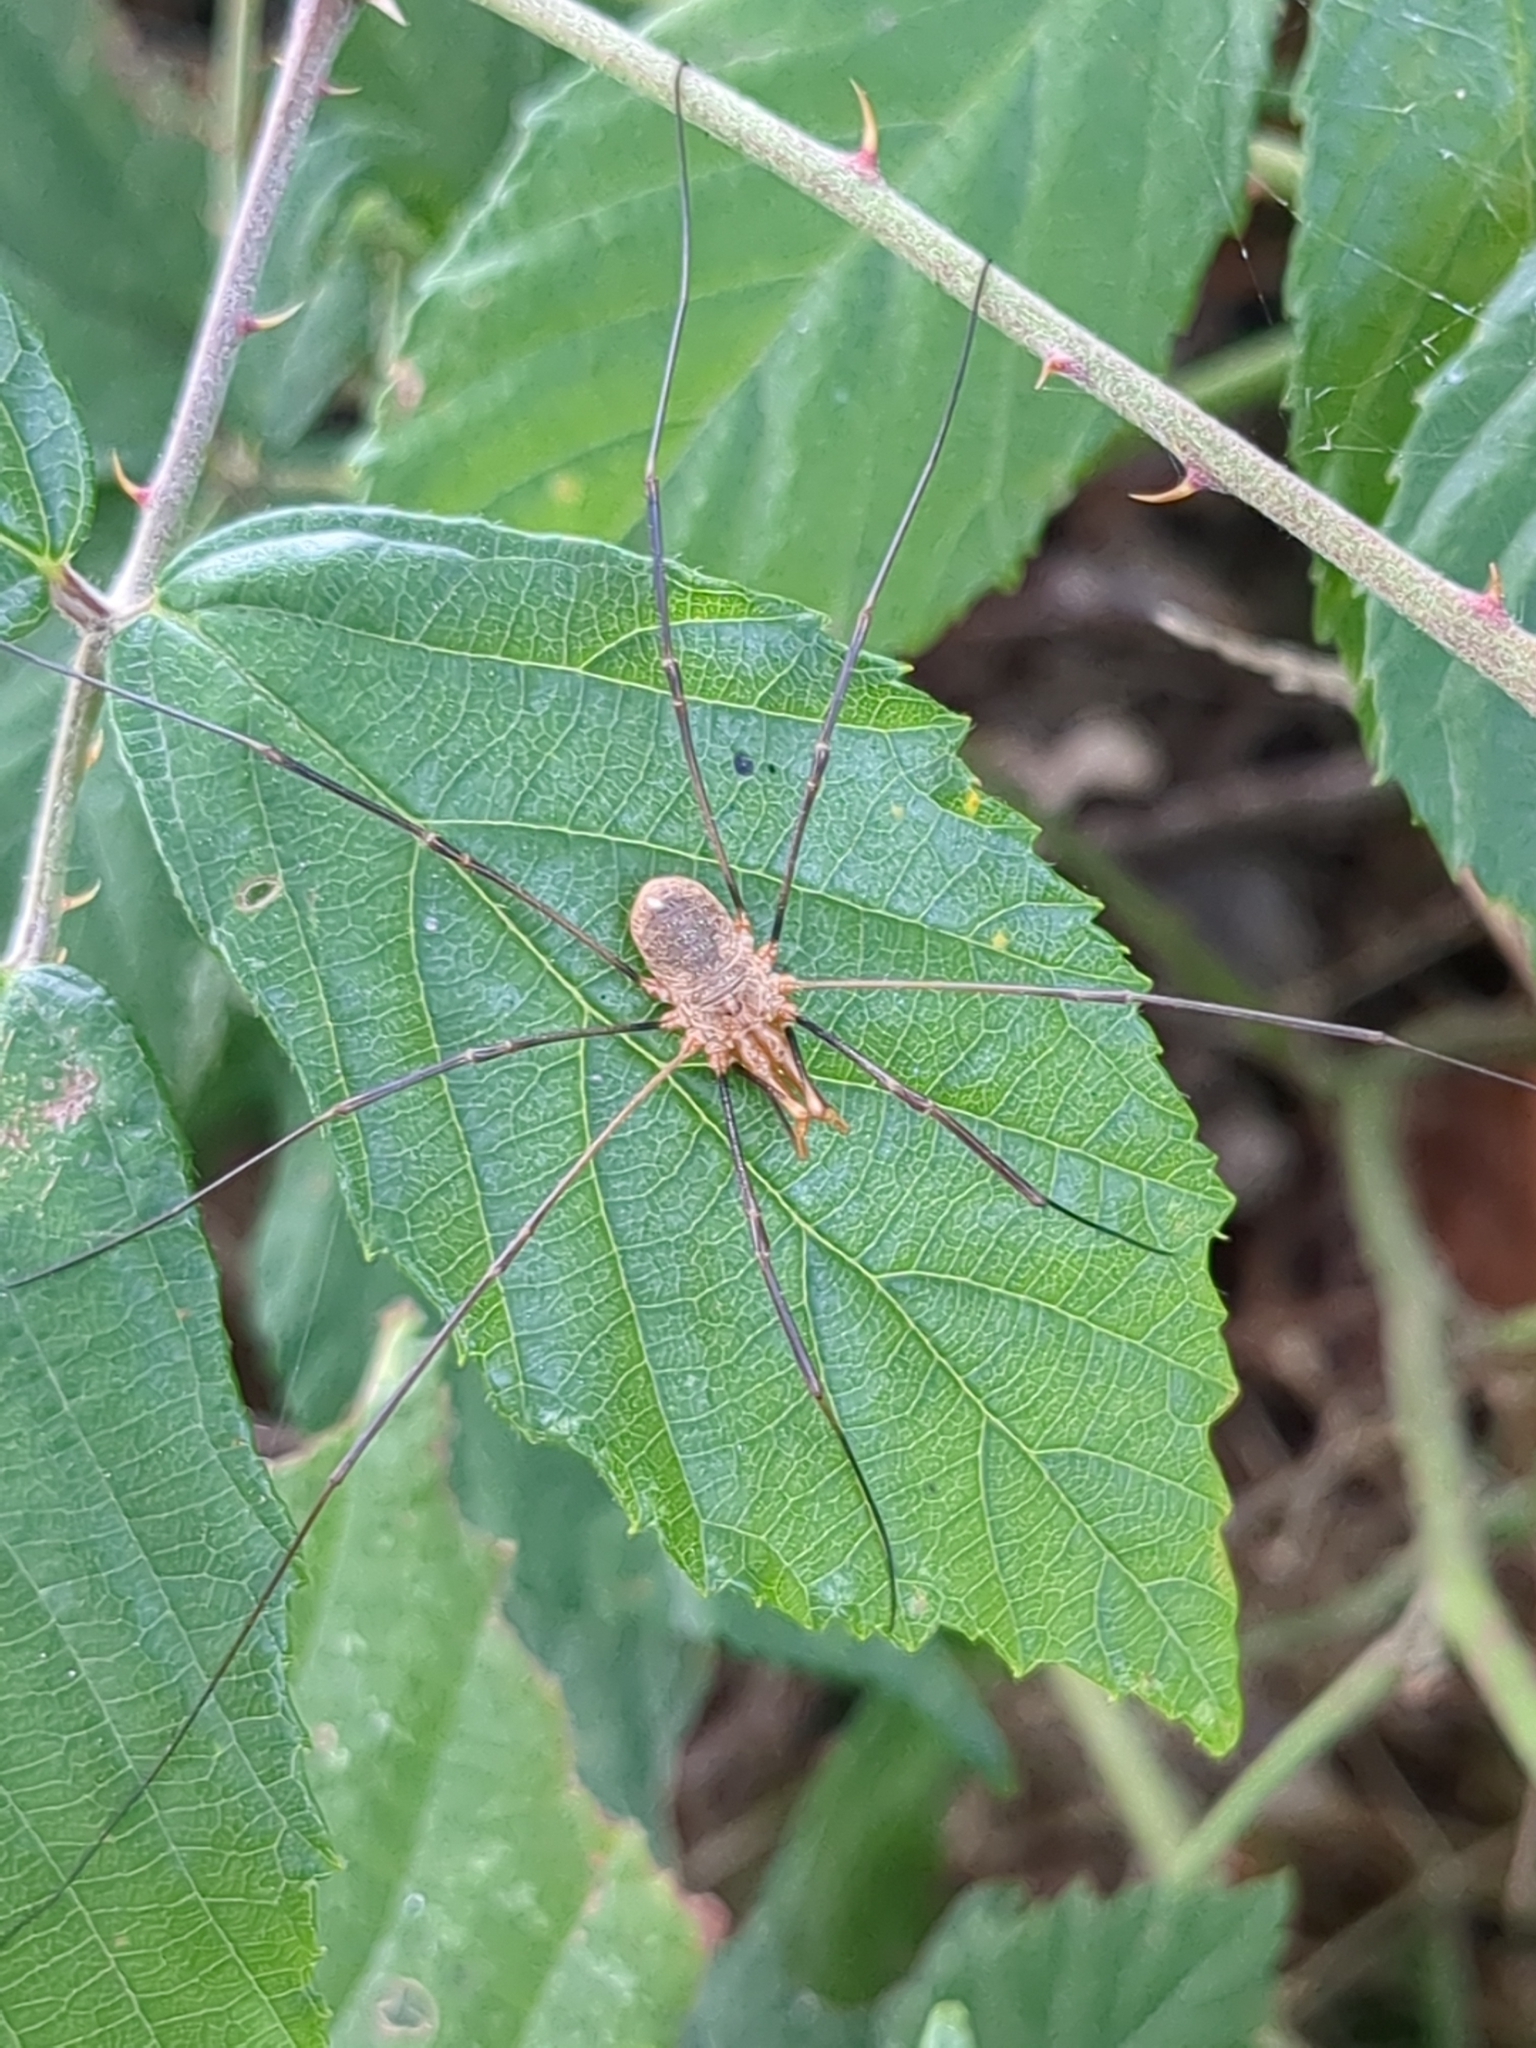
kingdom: Animalia
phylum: Arthropoda
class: Arachnida
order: Opiliones
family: Phalangiidae
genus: Phalangium
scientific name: Phalangium opilio
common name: Daddy longleg
